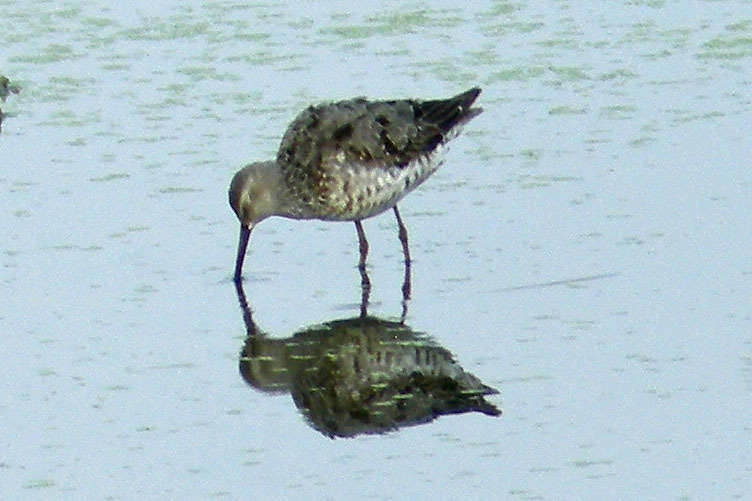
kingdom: Animalia
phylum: Chordata
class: Aves
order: Charadriiformes
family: Scolopacidae
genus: Calidris
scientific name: Calidris himantopus
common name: Stilt sandpiper
